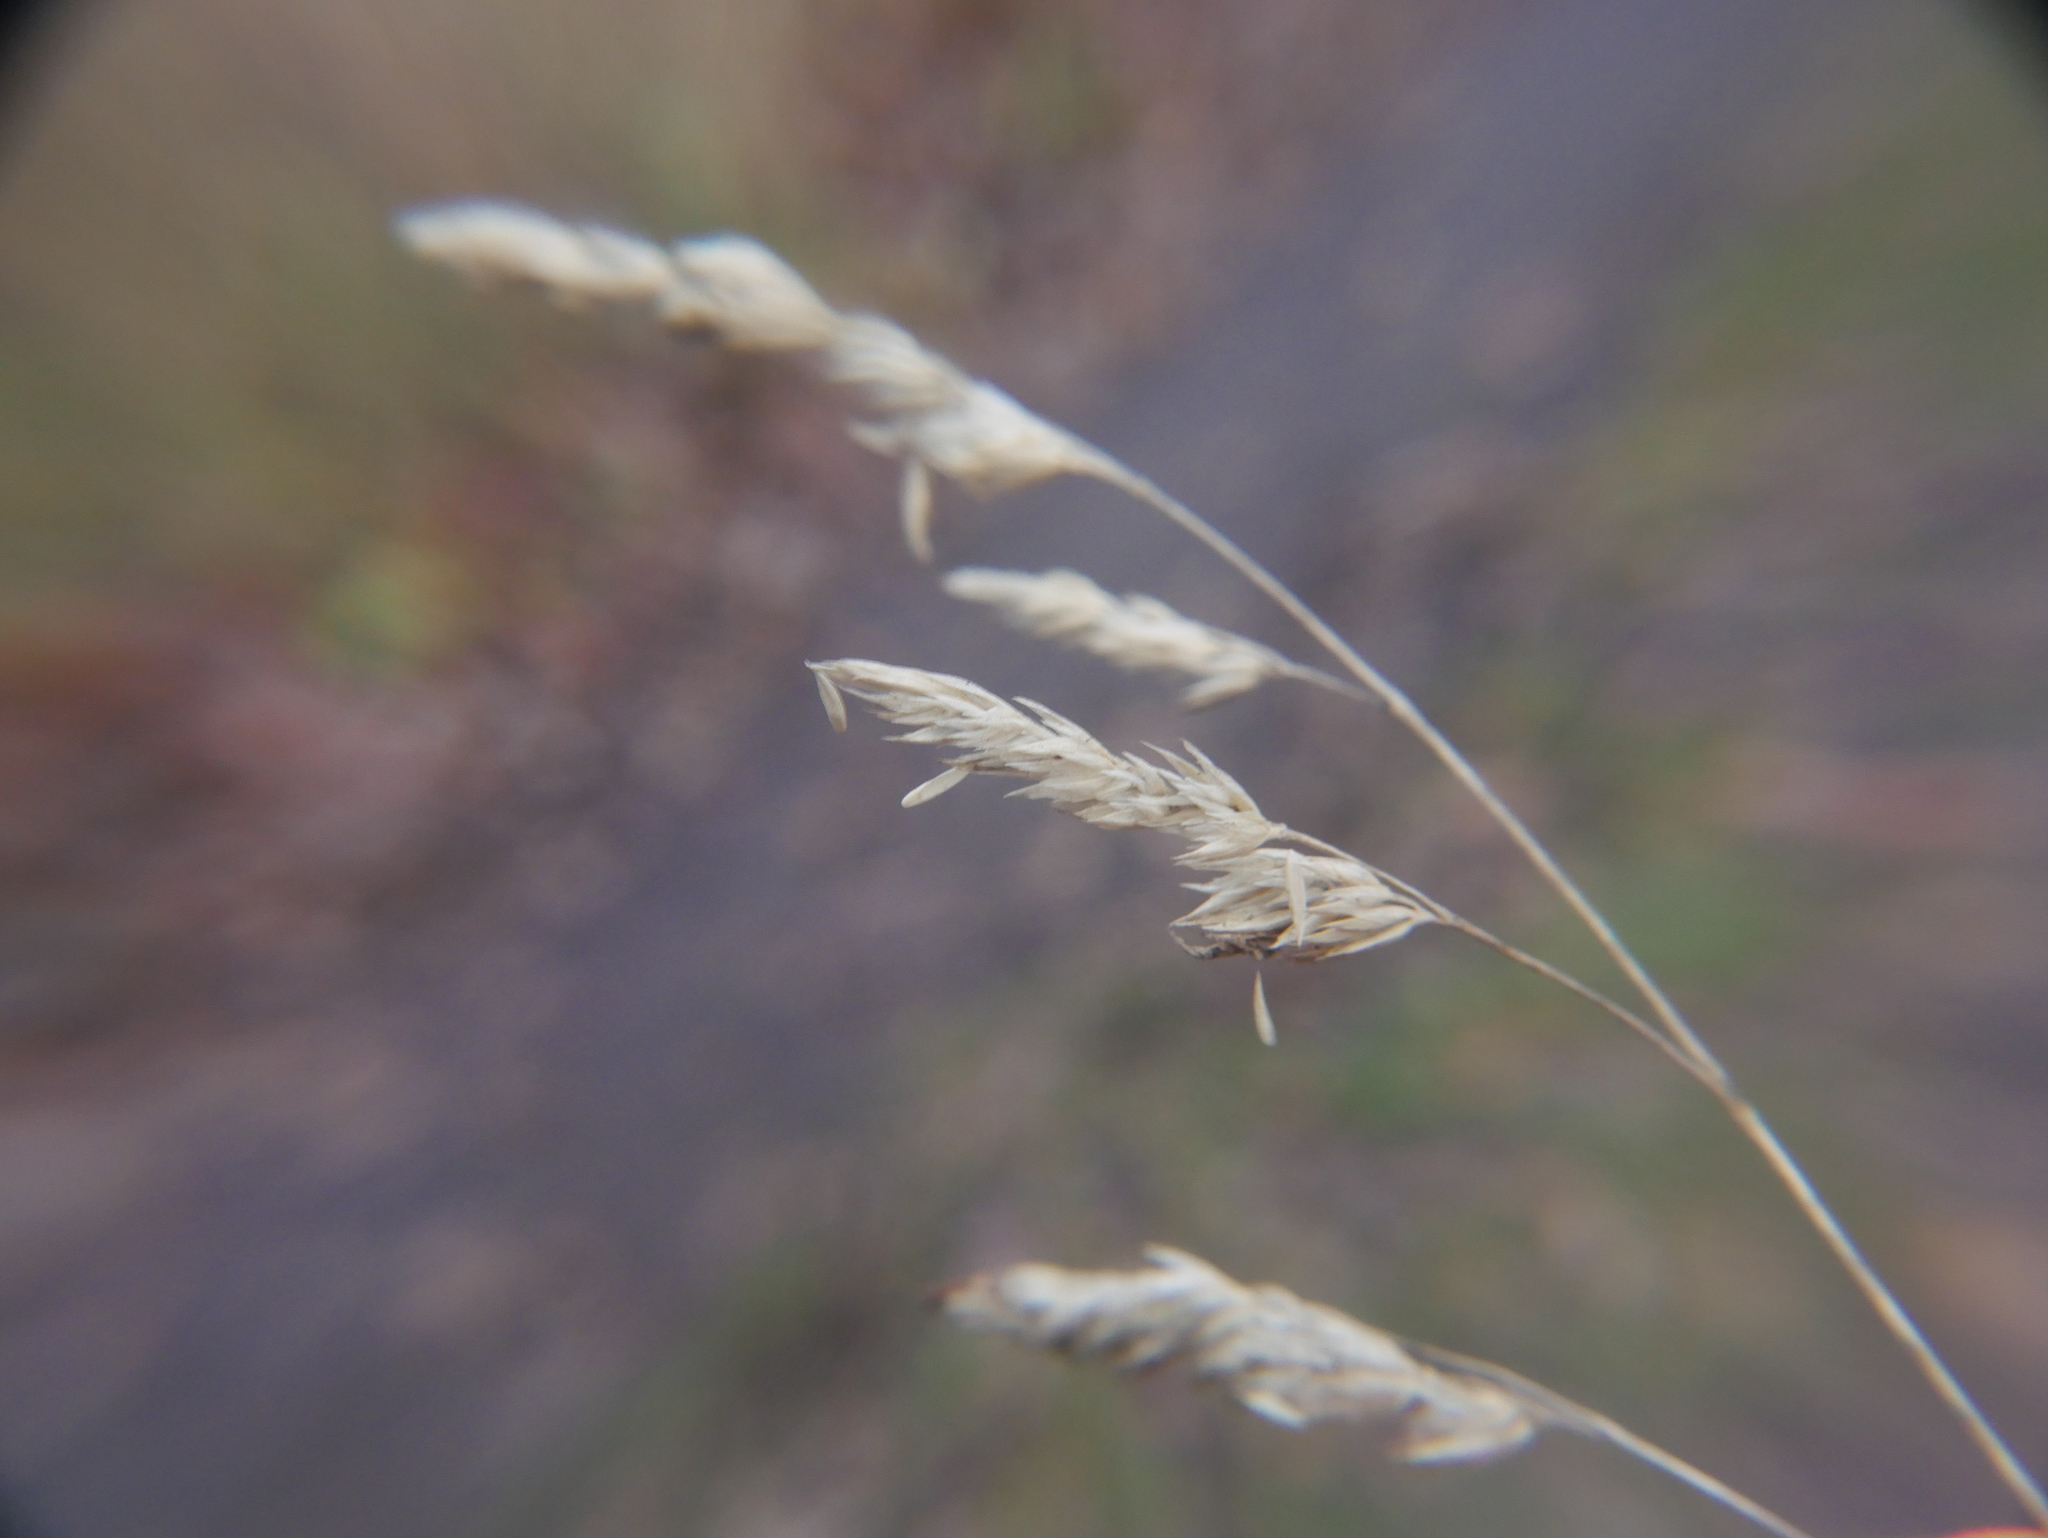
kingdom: Plantae
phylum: Tracheophyta
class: Liliopsida
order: Poales
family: Poaceae
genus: Dactylis
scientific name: Dactylis glomerata
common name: Orchardgrass
